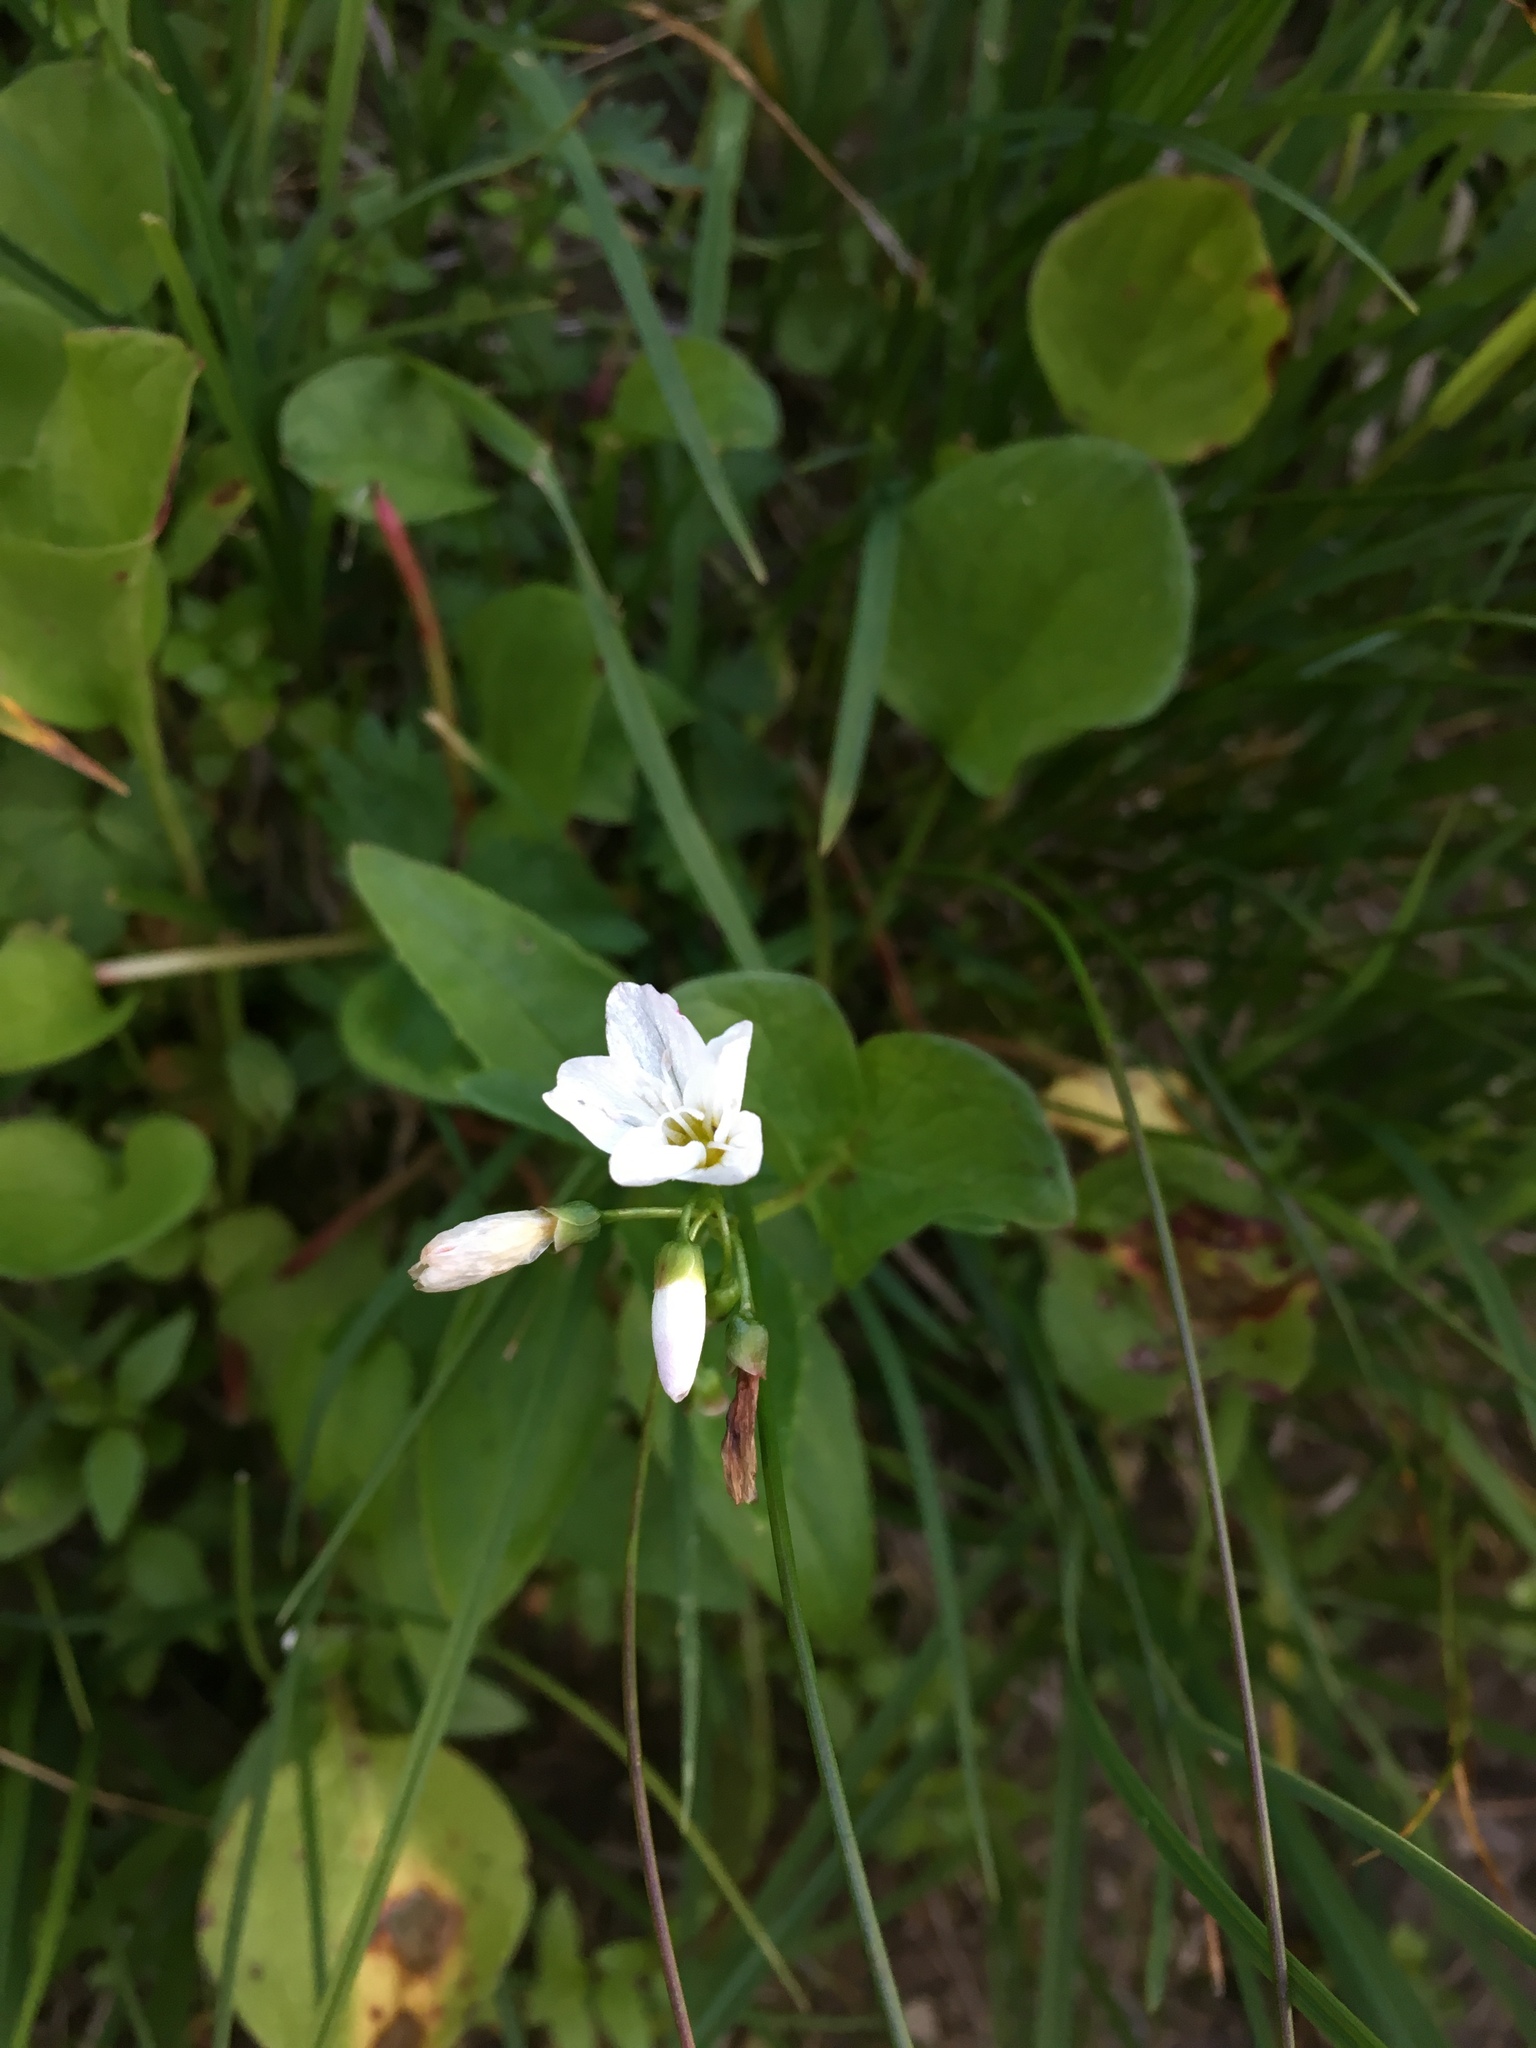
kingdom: Plantae
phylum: Tracheophyta
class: Magnoliopsida
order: Caryophyllales
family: Montiaceae
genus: Claytonia
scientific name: Claytonia cordifolia
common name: Broad-leaved spring beauty
